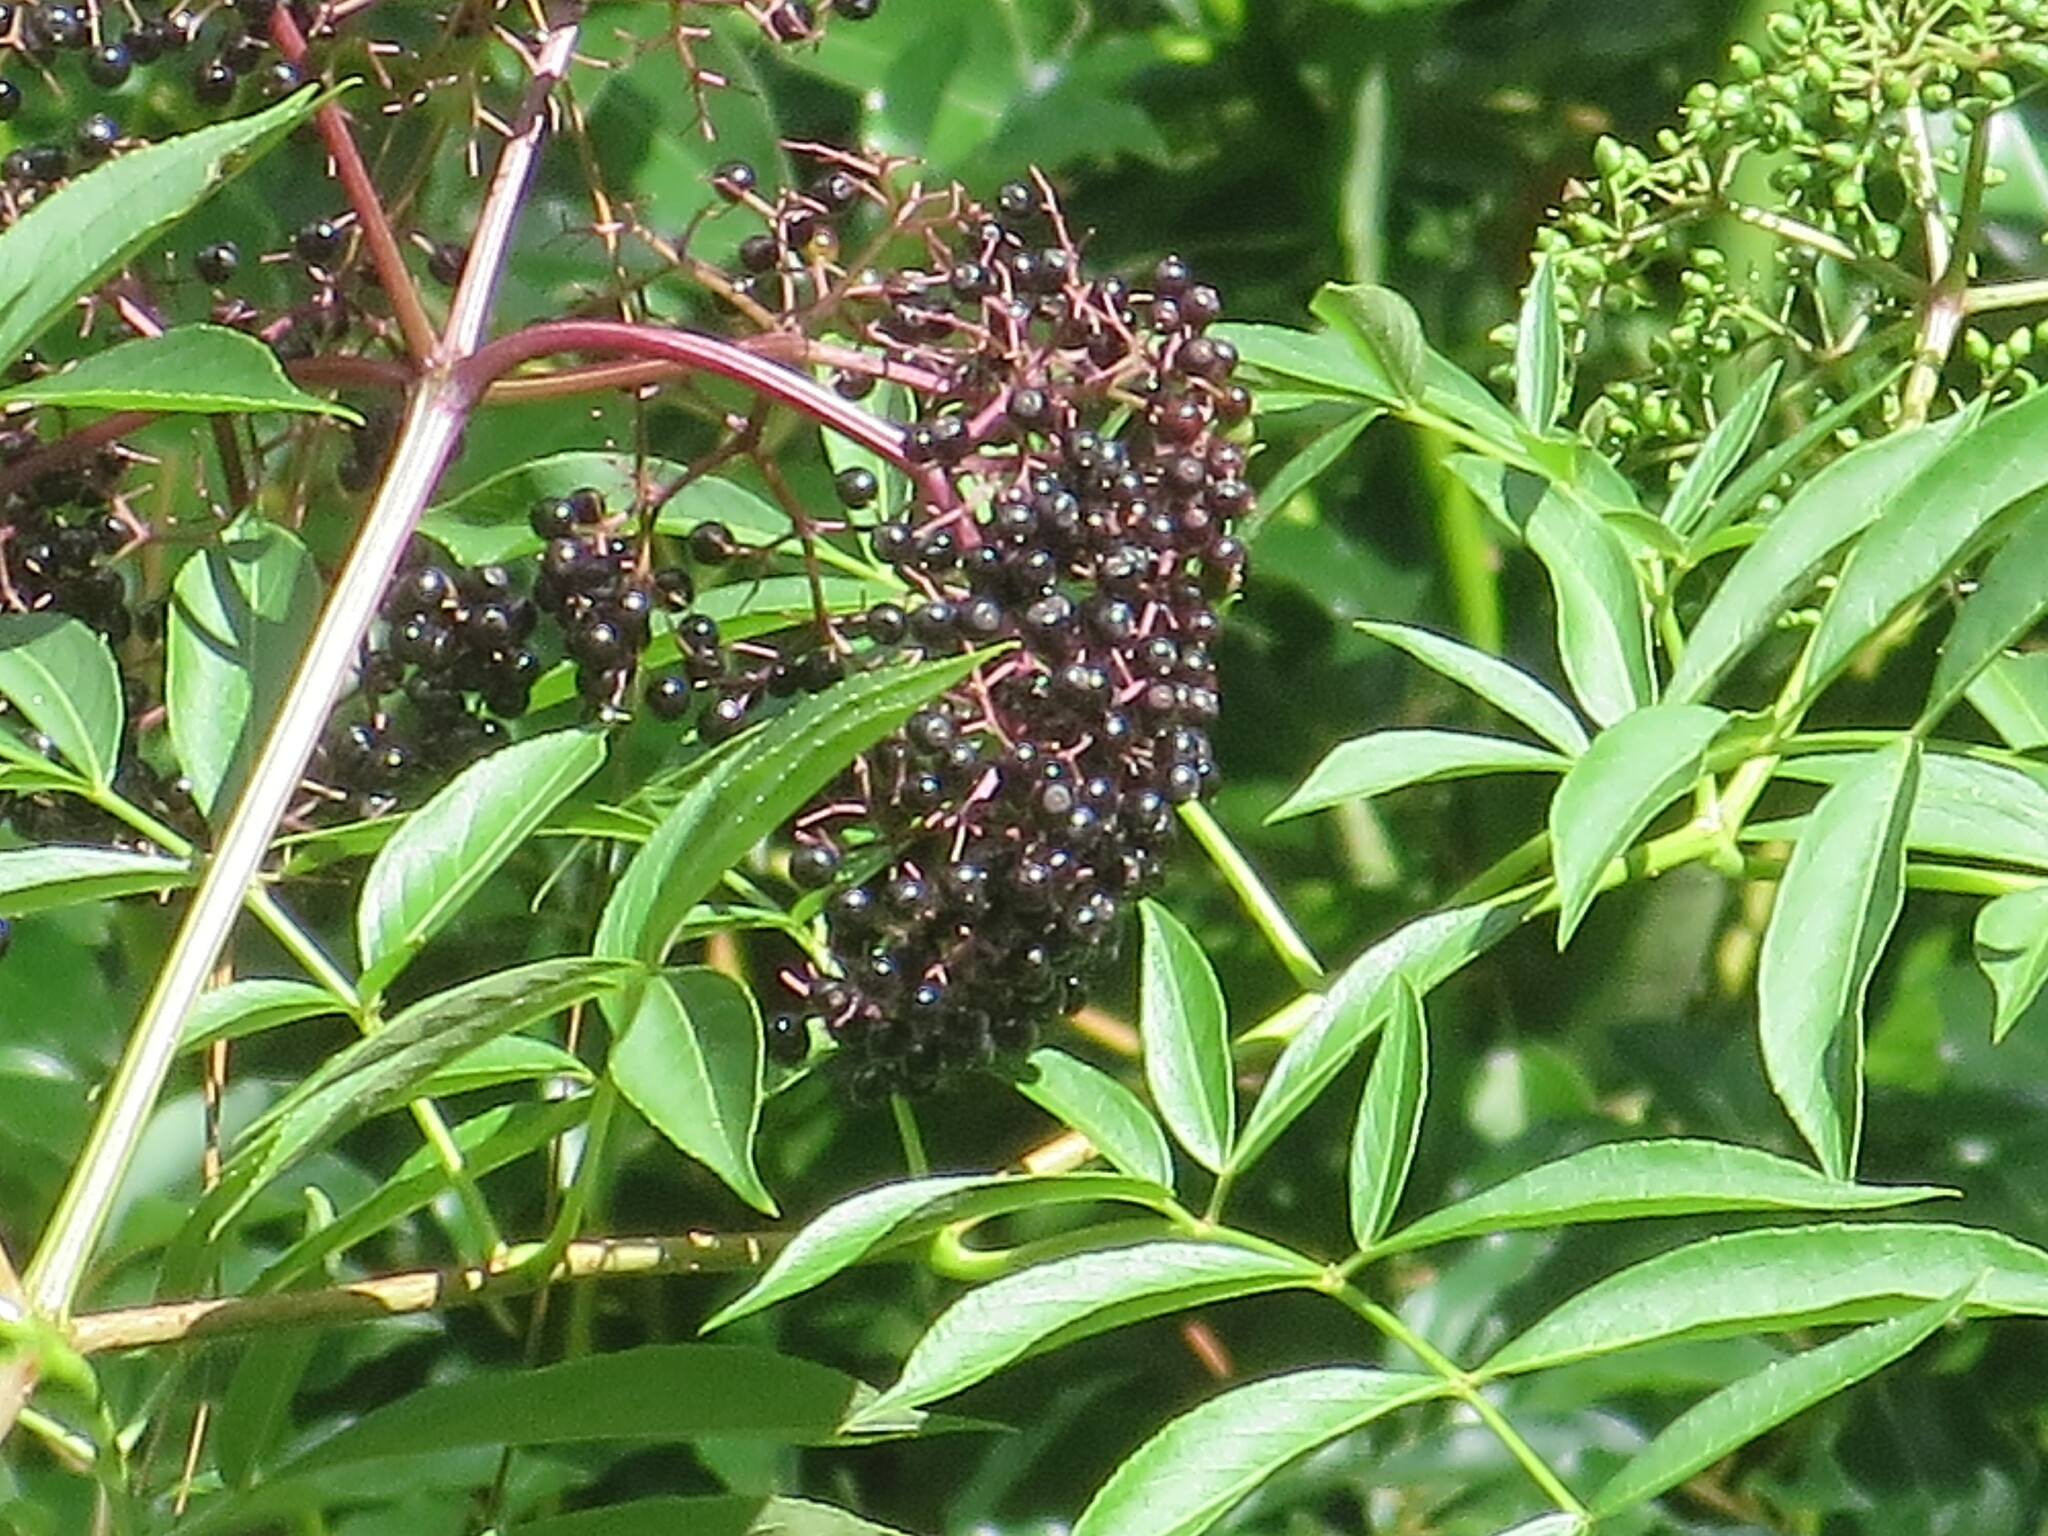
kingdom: Plantae
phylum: Tracheophyta
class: Magnoliopsida
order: Dipsacales
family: Viburnaceae
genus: Sambucus
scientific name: Sambucus canadensis
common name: American elder
